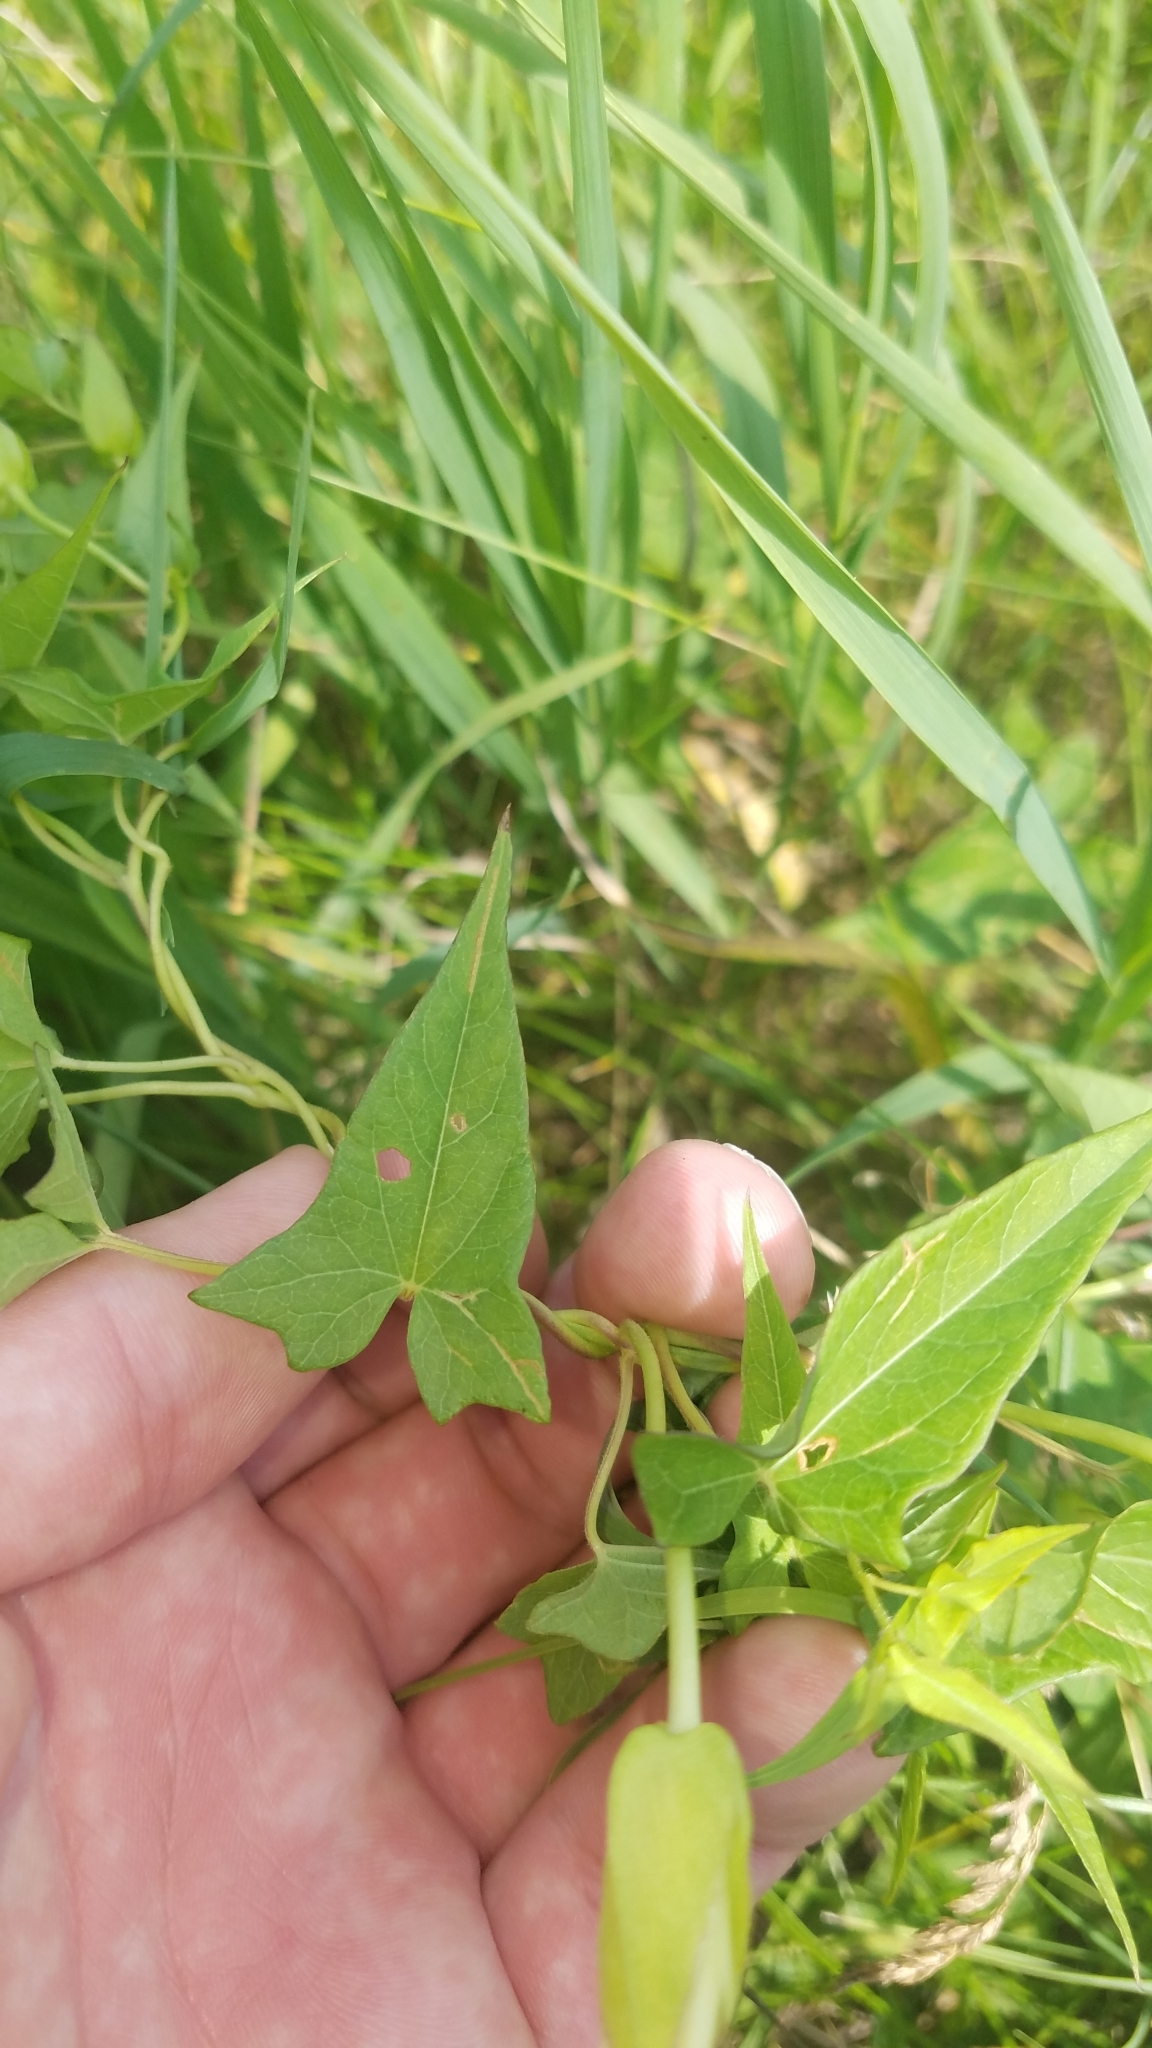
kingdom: Plantae
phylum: Tracheophyta
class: Magnoliopsida
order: Solanales
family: Convolvulaceae
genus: Calystegia
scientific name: Calystegia sepium
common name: Hedge bindweed
